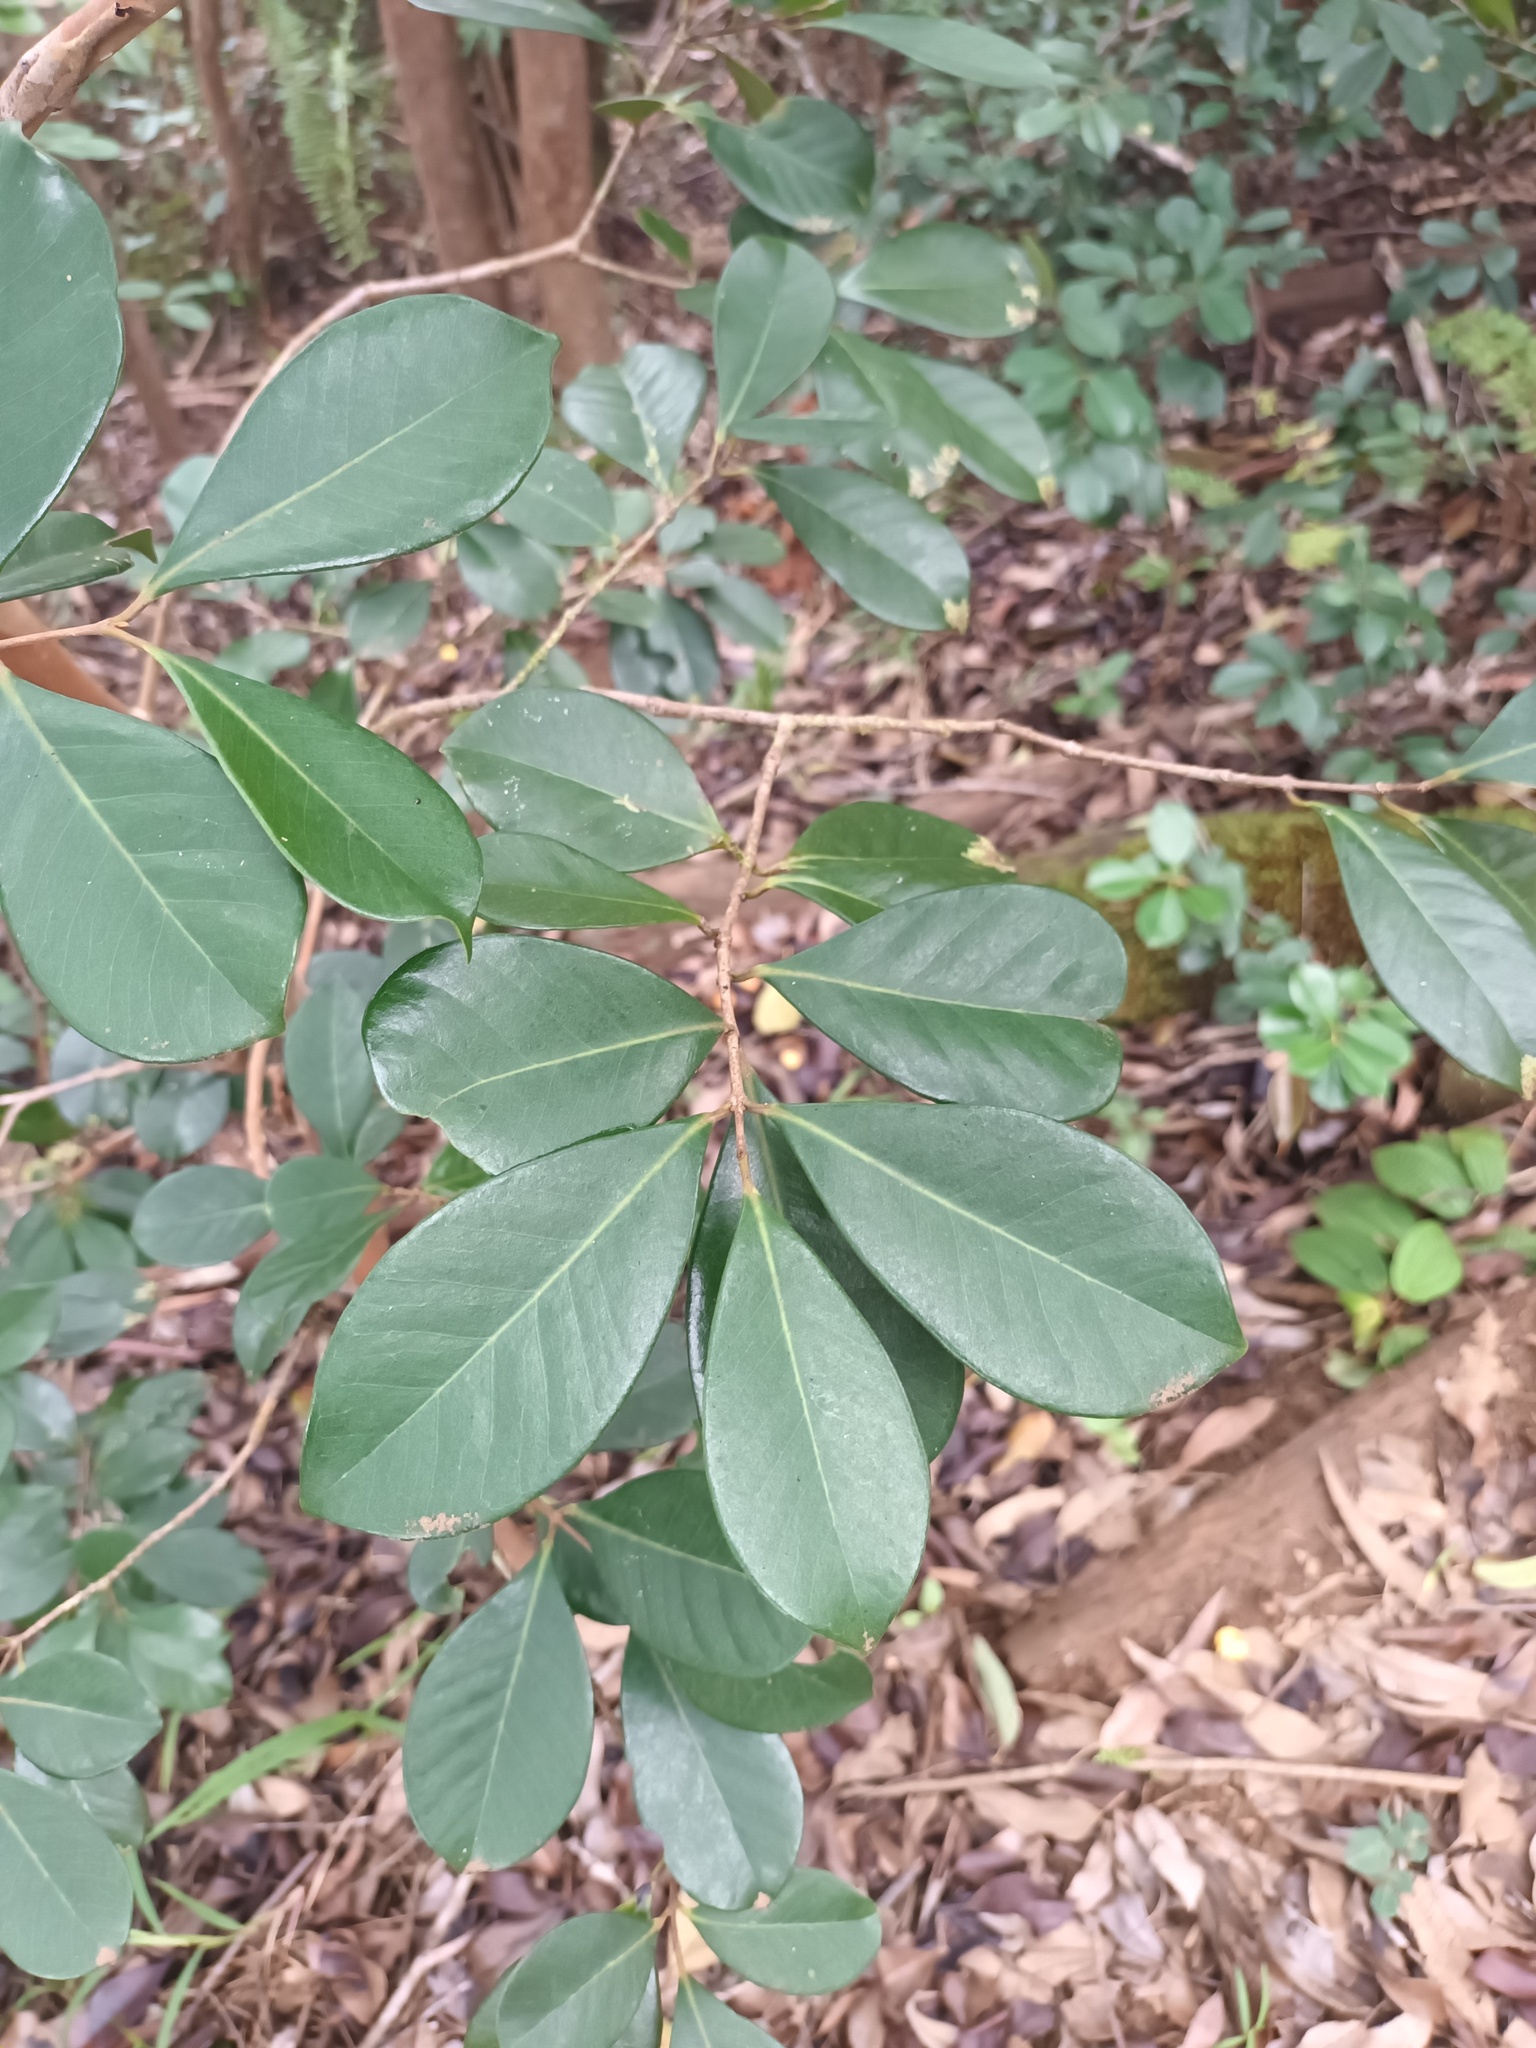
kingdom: Plantae
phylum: Tracheophyta
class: Magnoliopsida
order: Myrtales
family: Myrtaceae
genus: Psidium
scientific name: Psidium cattleianum
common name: Strawberry guava
